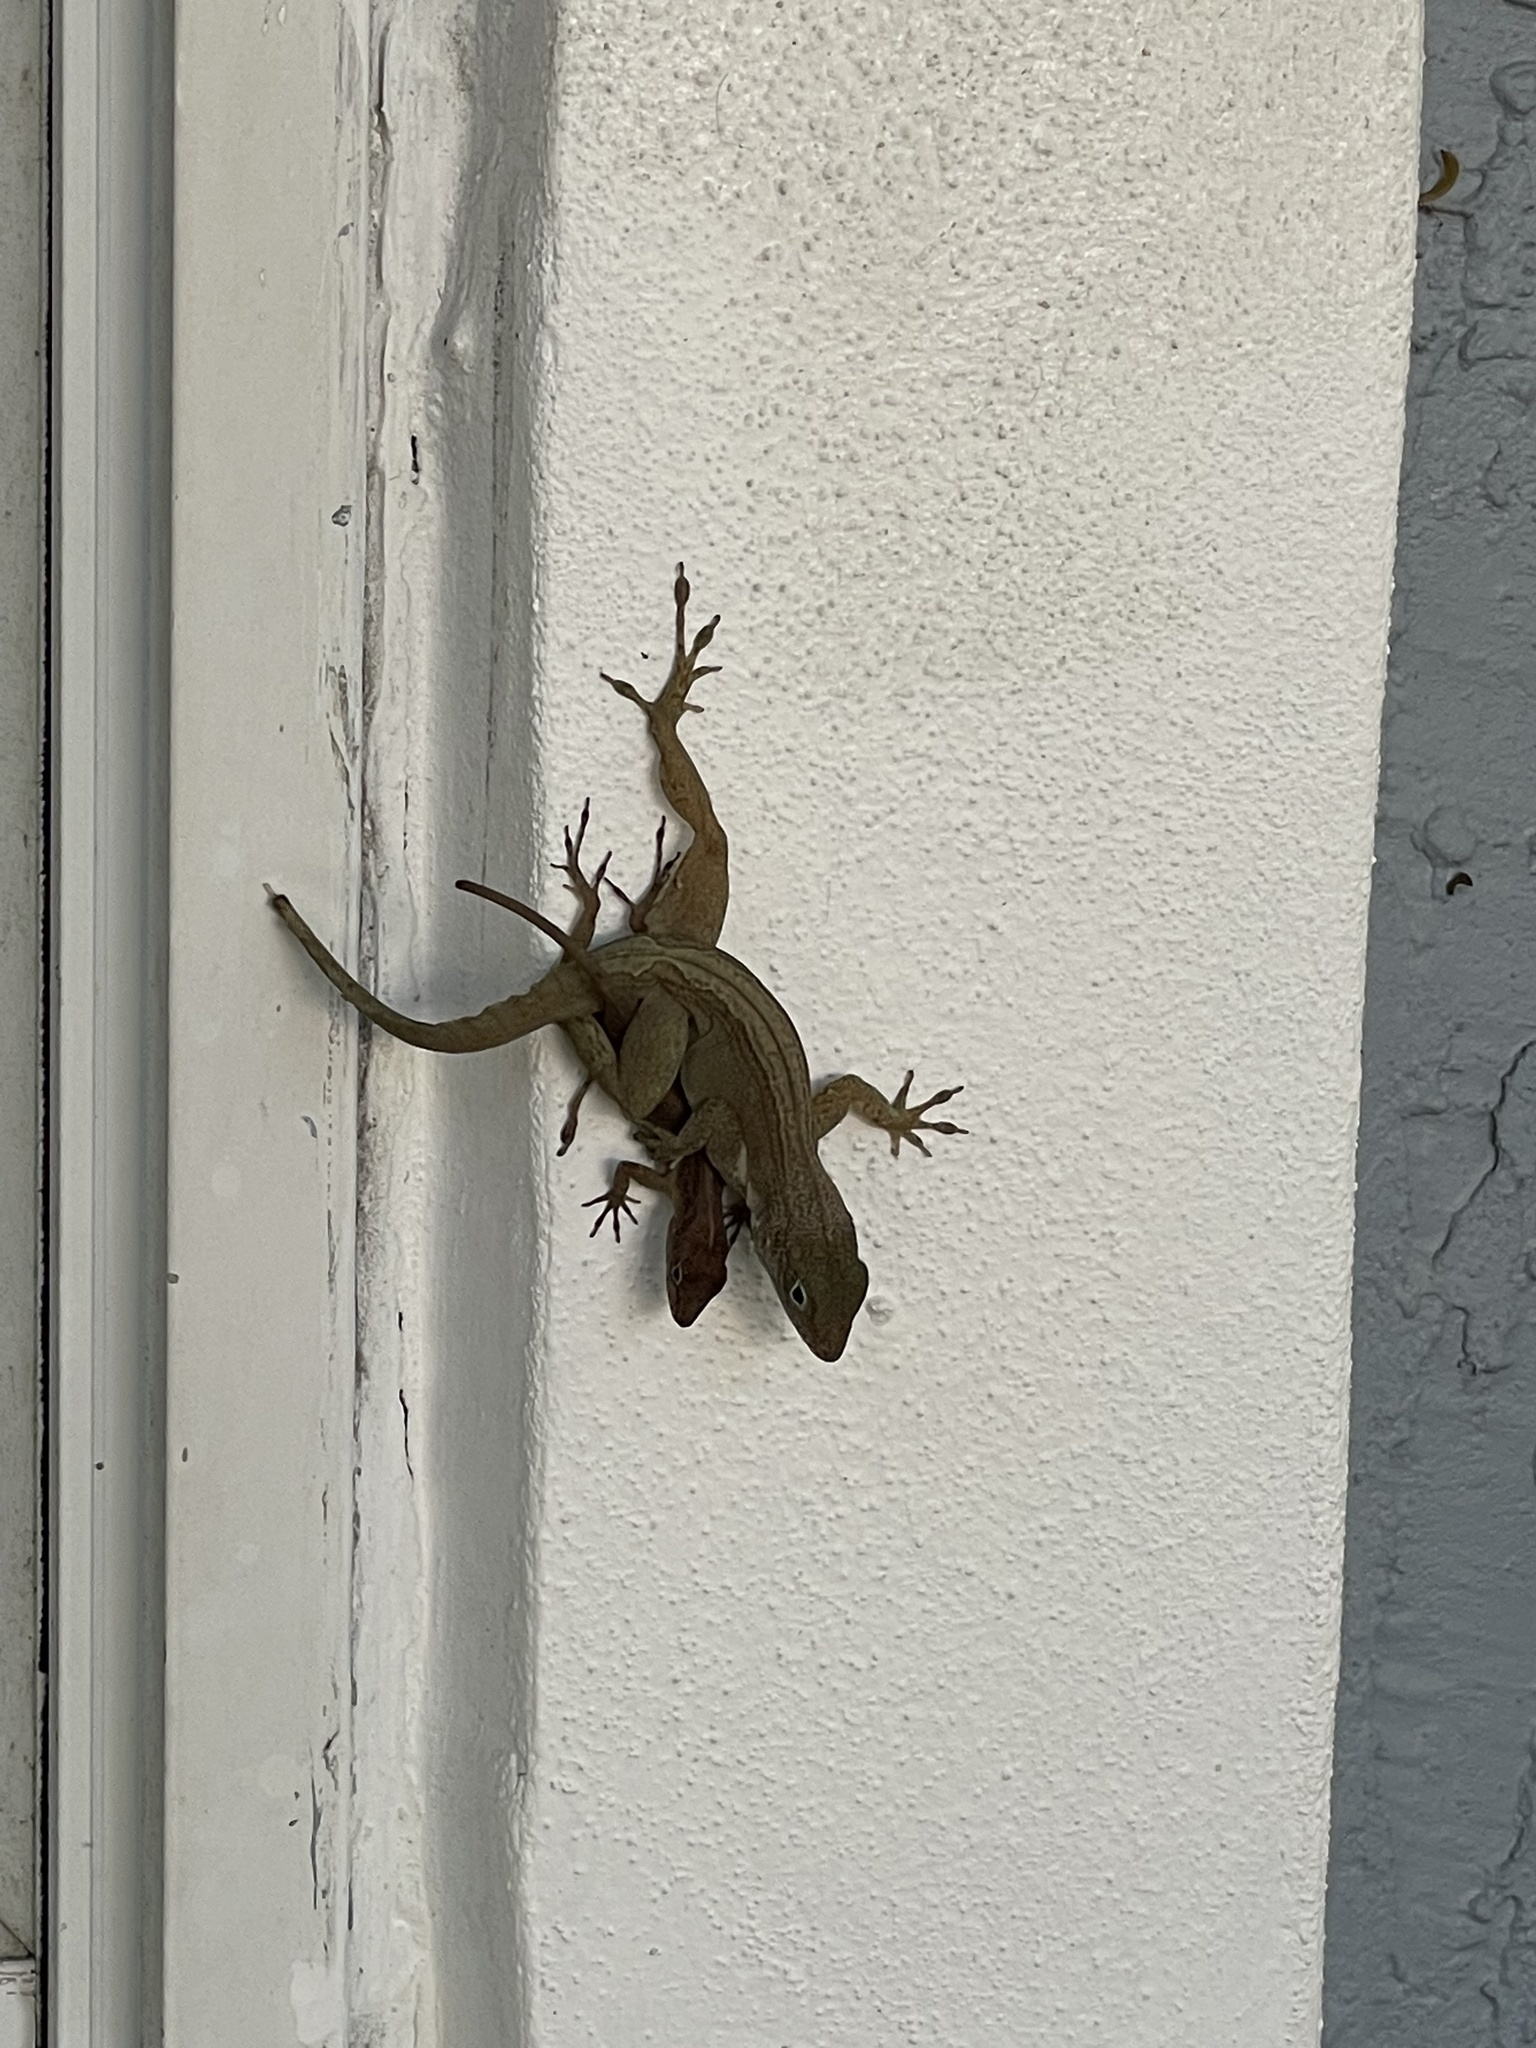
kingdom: Animalia
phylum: Chordata
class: Squamata
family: Dactyloidae
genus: Anolis
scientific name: Anolis cristatellus
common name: Crested anole
